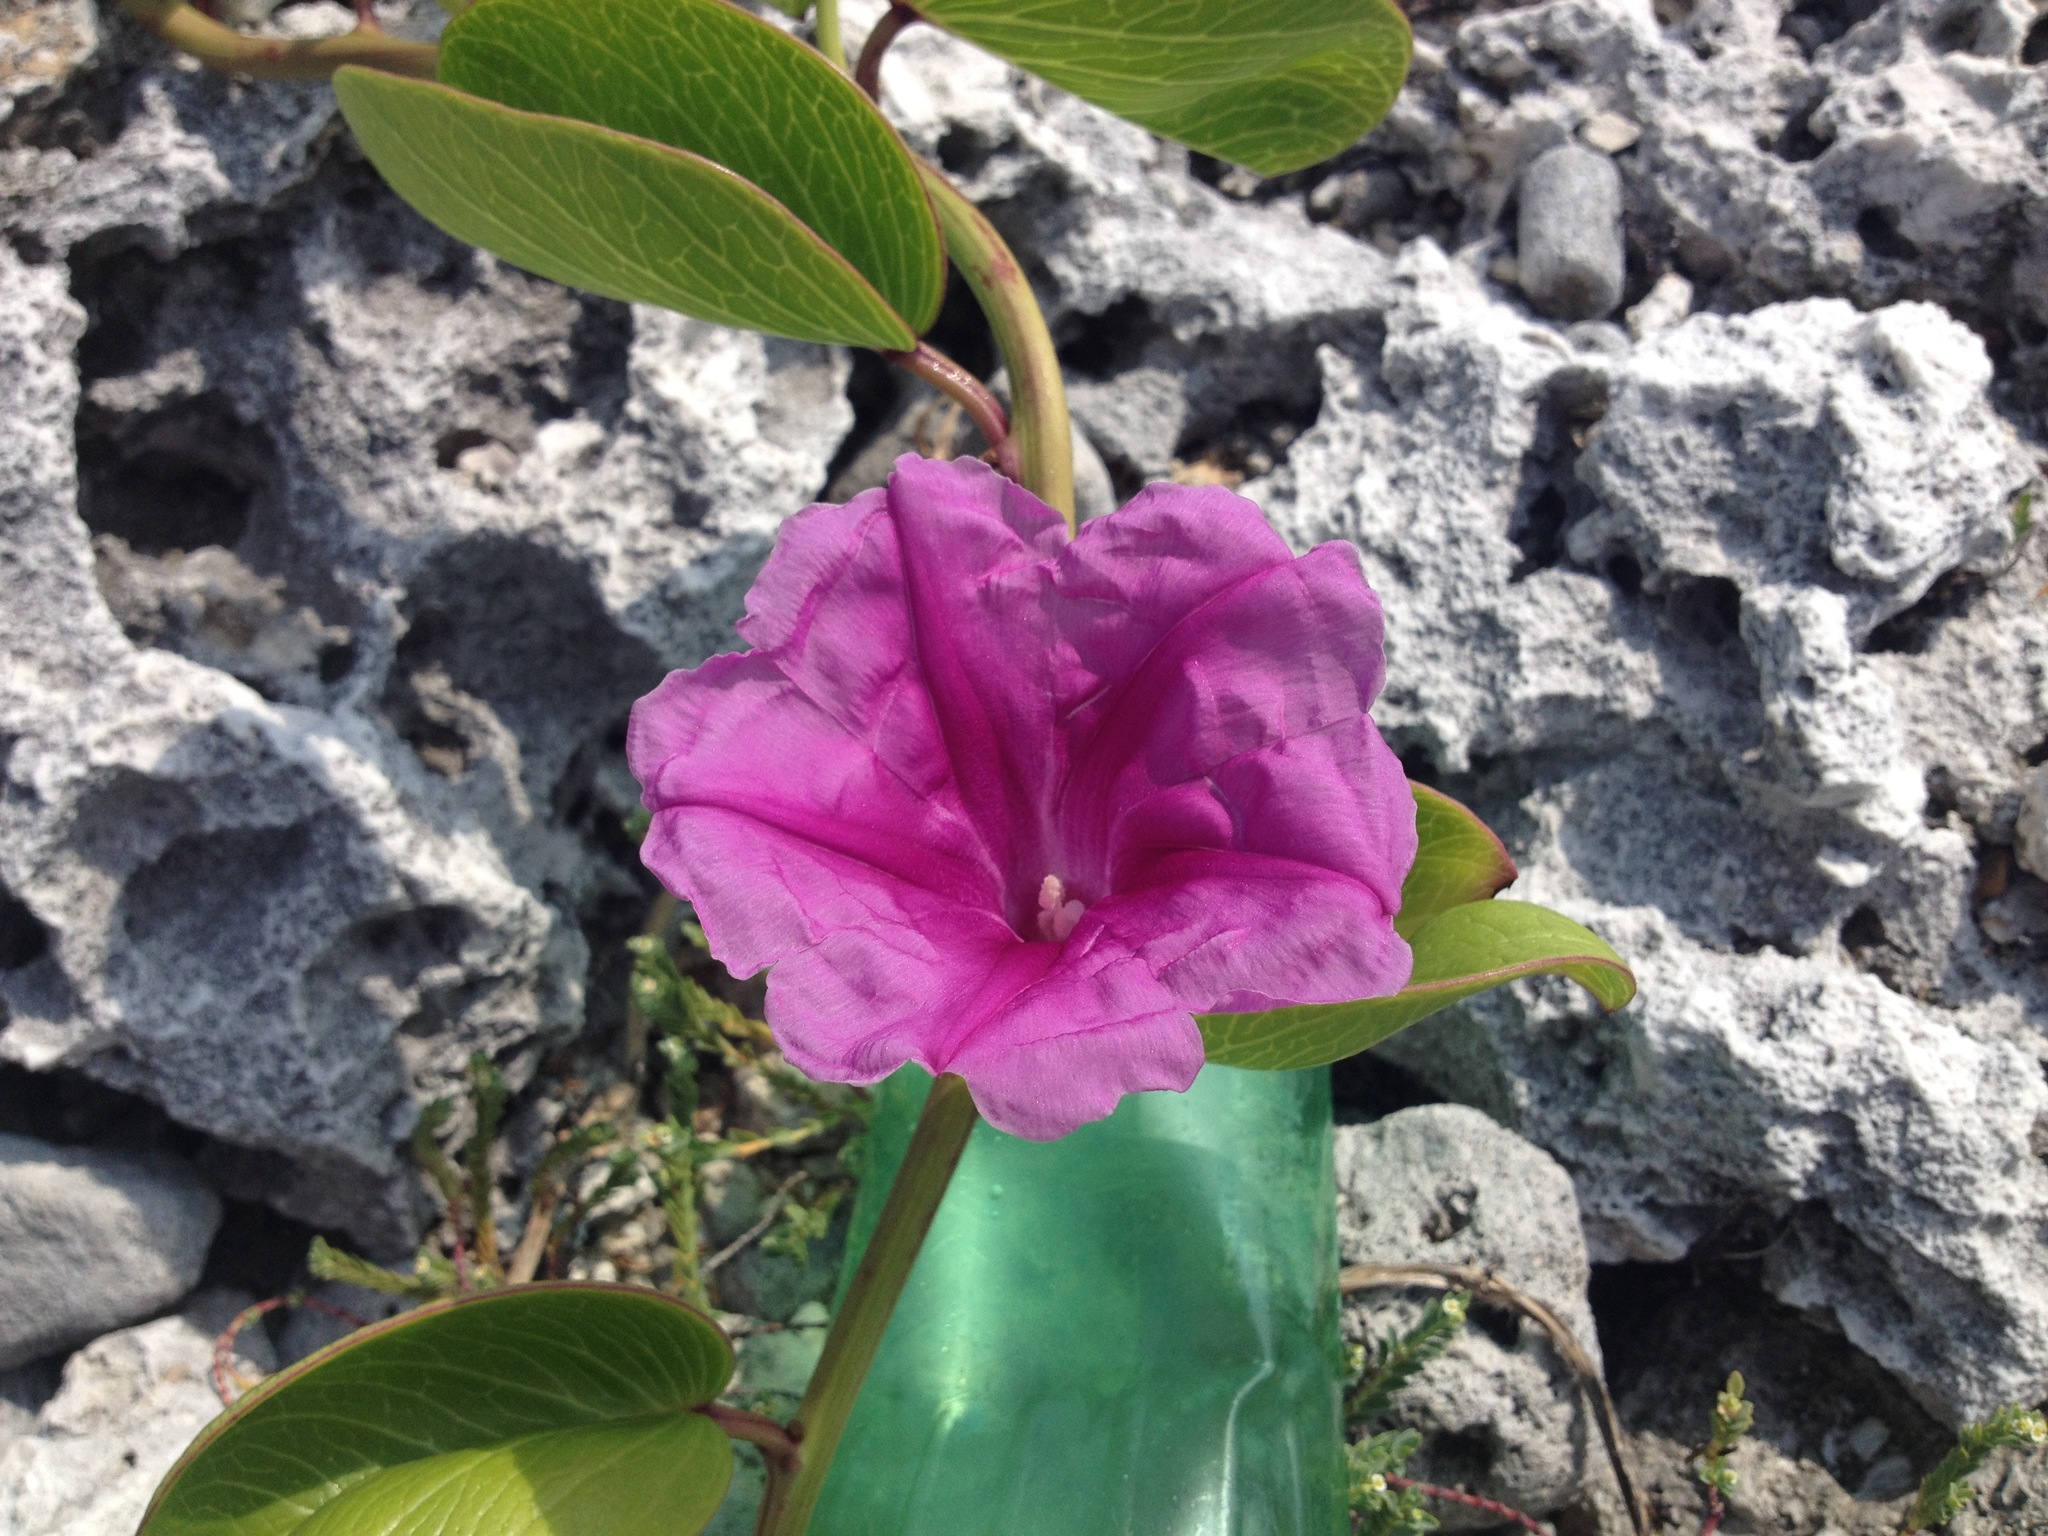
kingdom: Plantae
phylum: Tracheophyta
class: Magnoliopsida
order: Solanales
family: Convolvulaceae
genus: Ipomoea
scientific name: Ipomoea pes-caprae
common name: Beach morning glory
